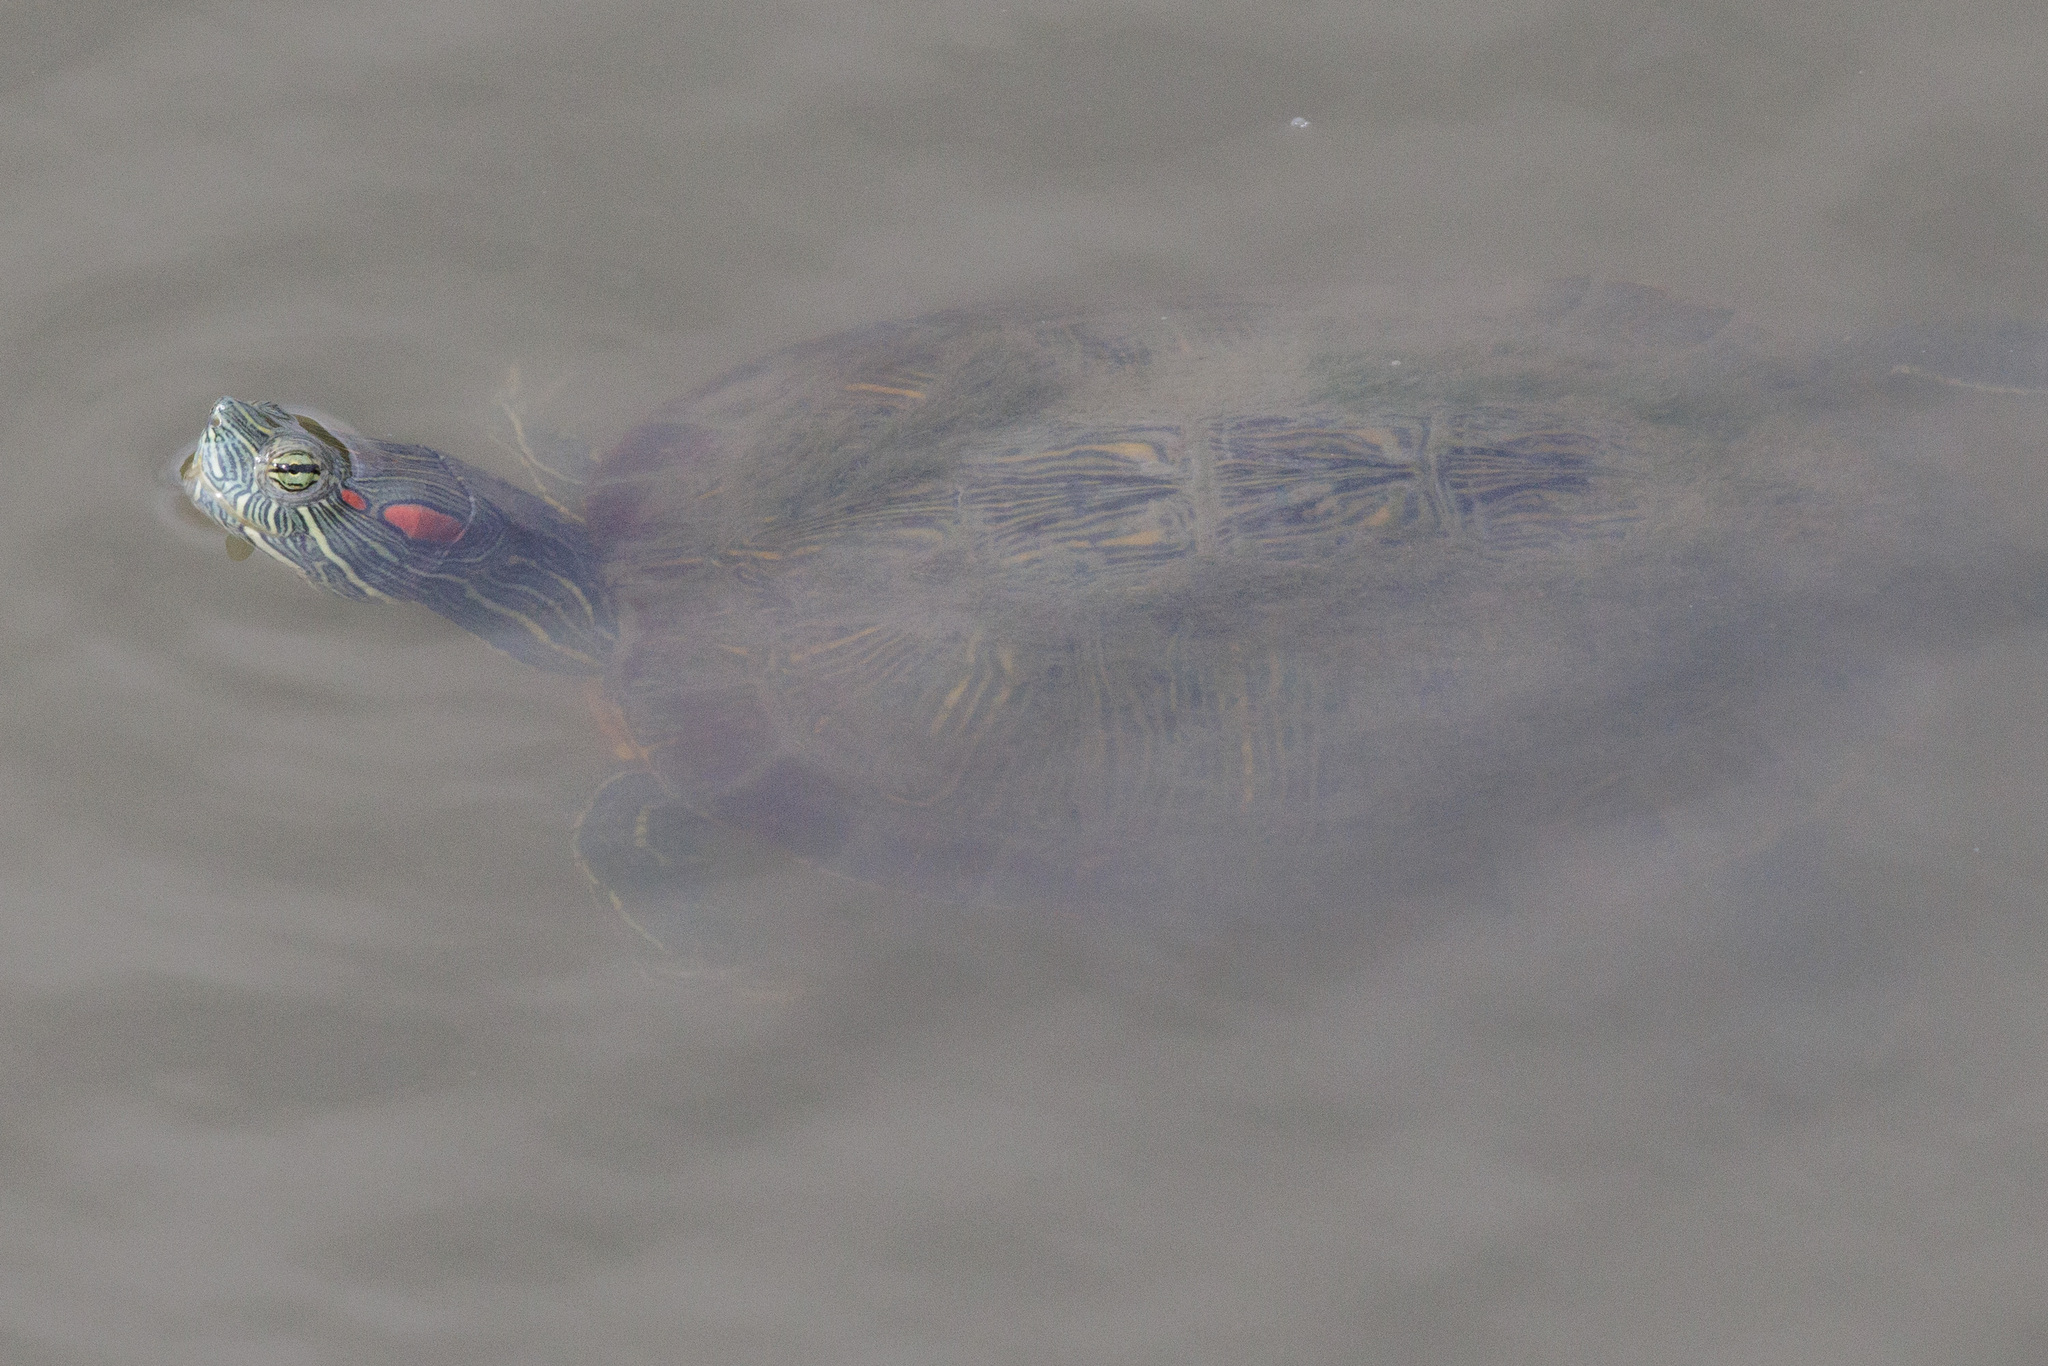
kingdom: Animalia
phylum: Chordata
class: Testudines
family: Emydidae
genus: Trachemys
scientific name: Trachemys scripta
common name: Slider
